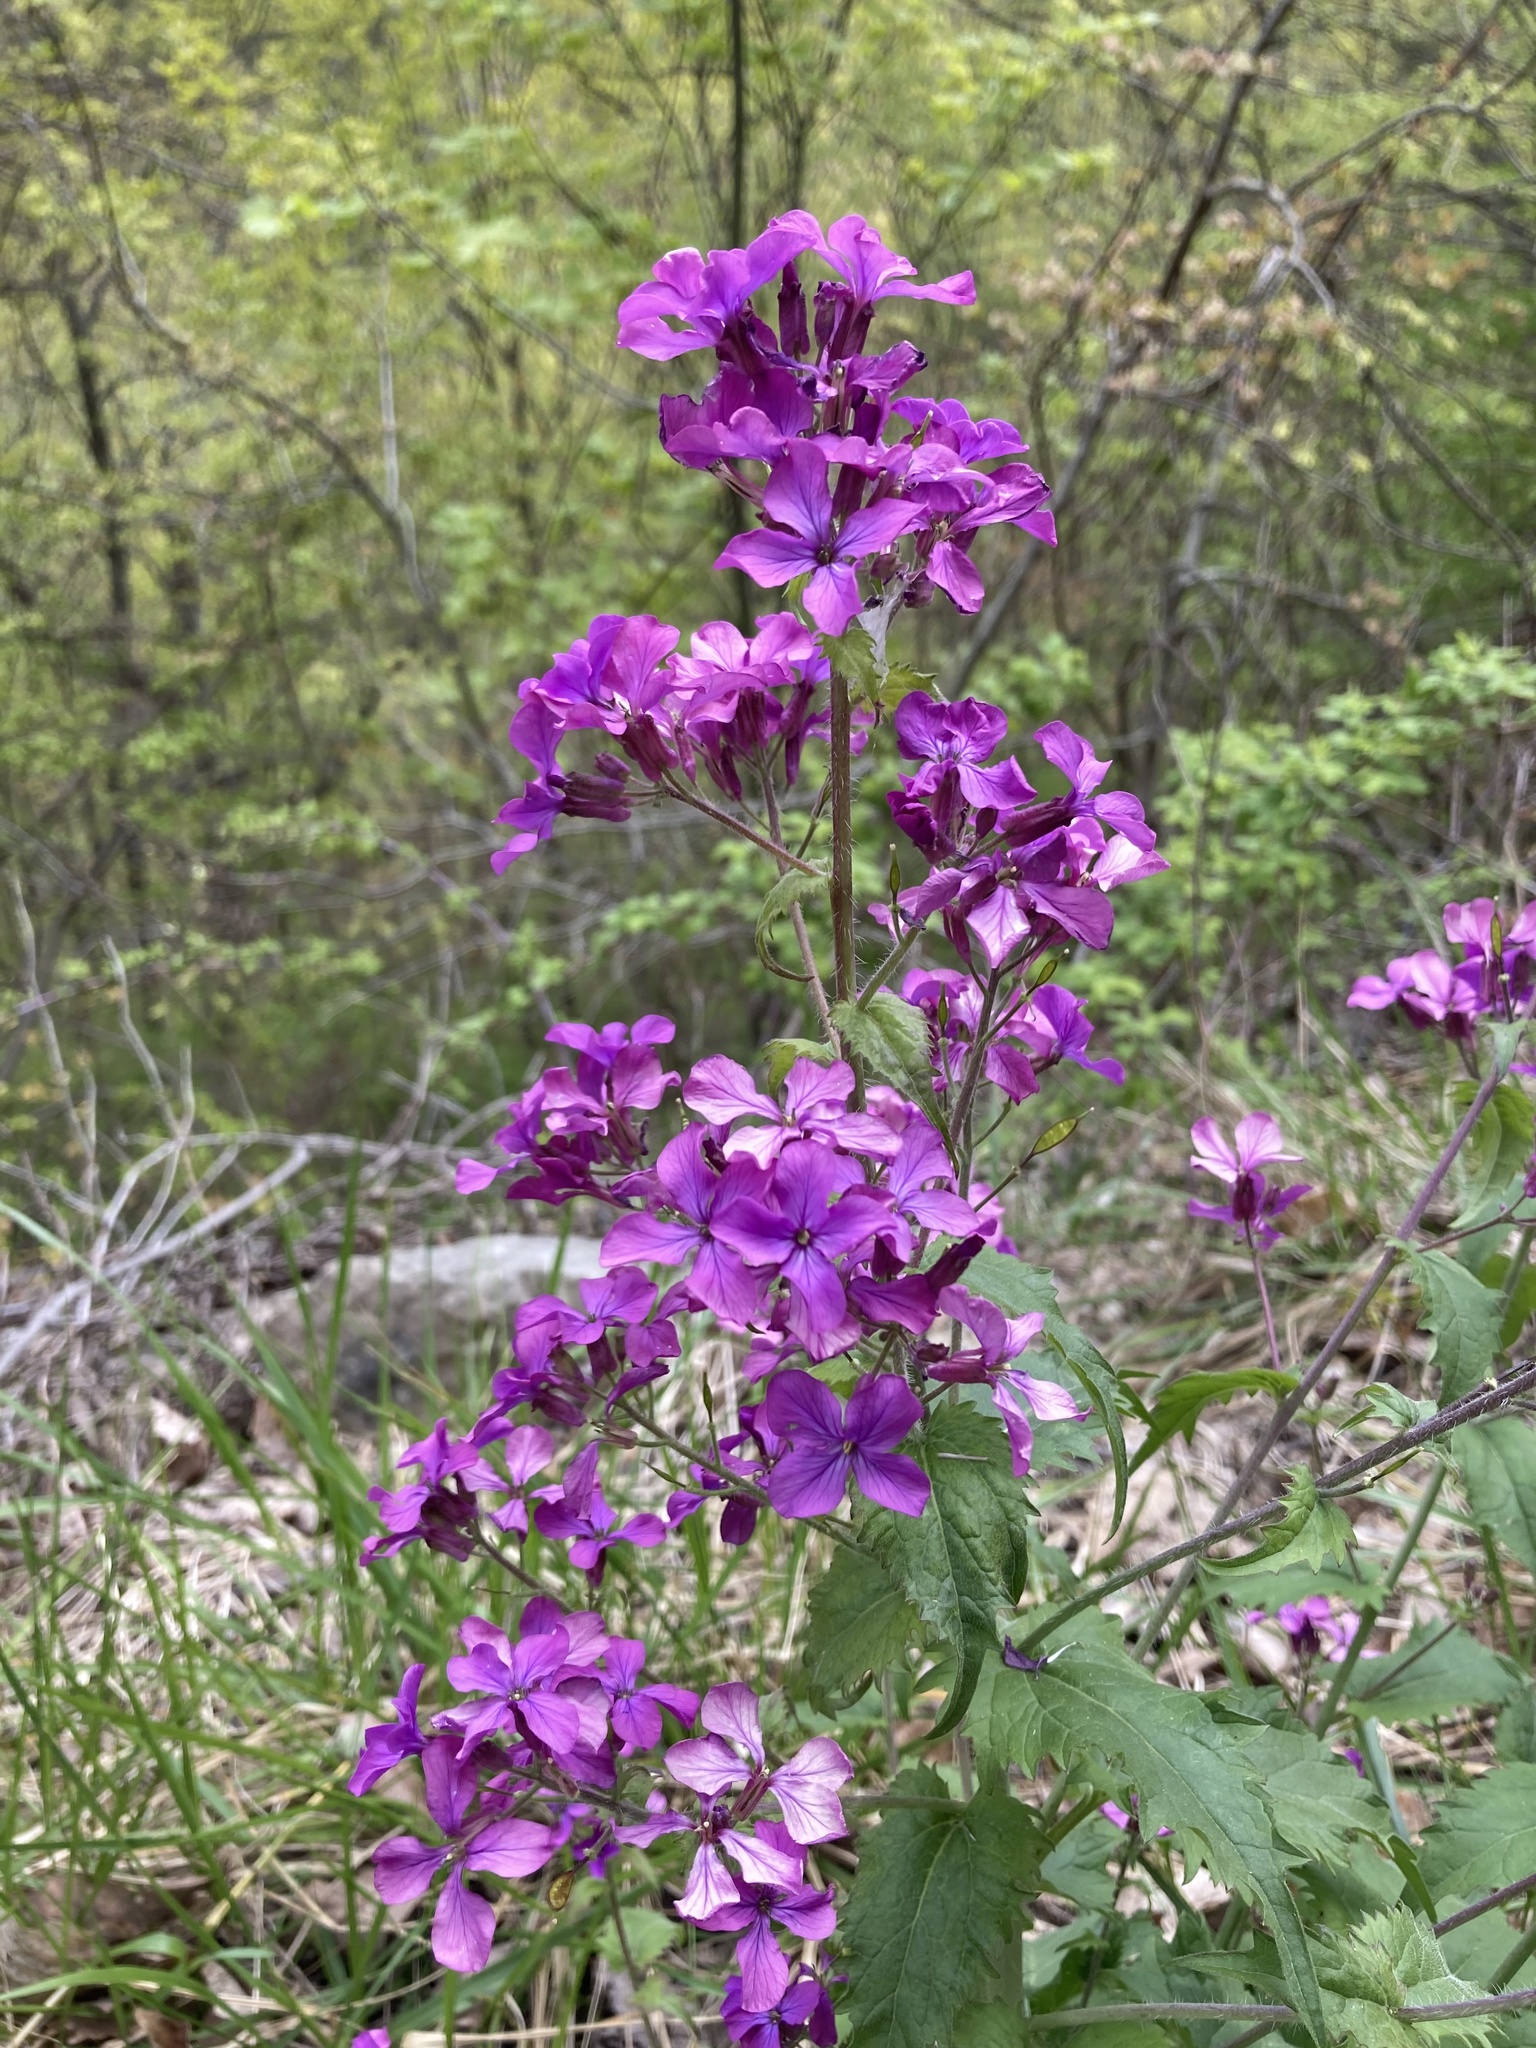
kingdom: Plantae
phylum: Tracheophyta
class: Magnoliopsida
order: Brassicales
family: Brassicaceae
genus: Lunaria
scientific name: Lunaria annua
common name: Honesty
